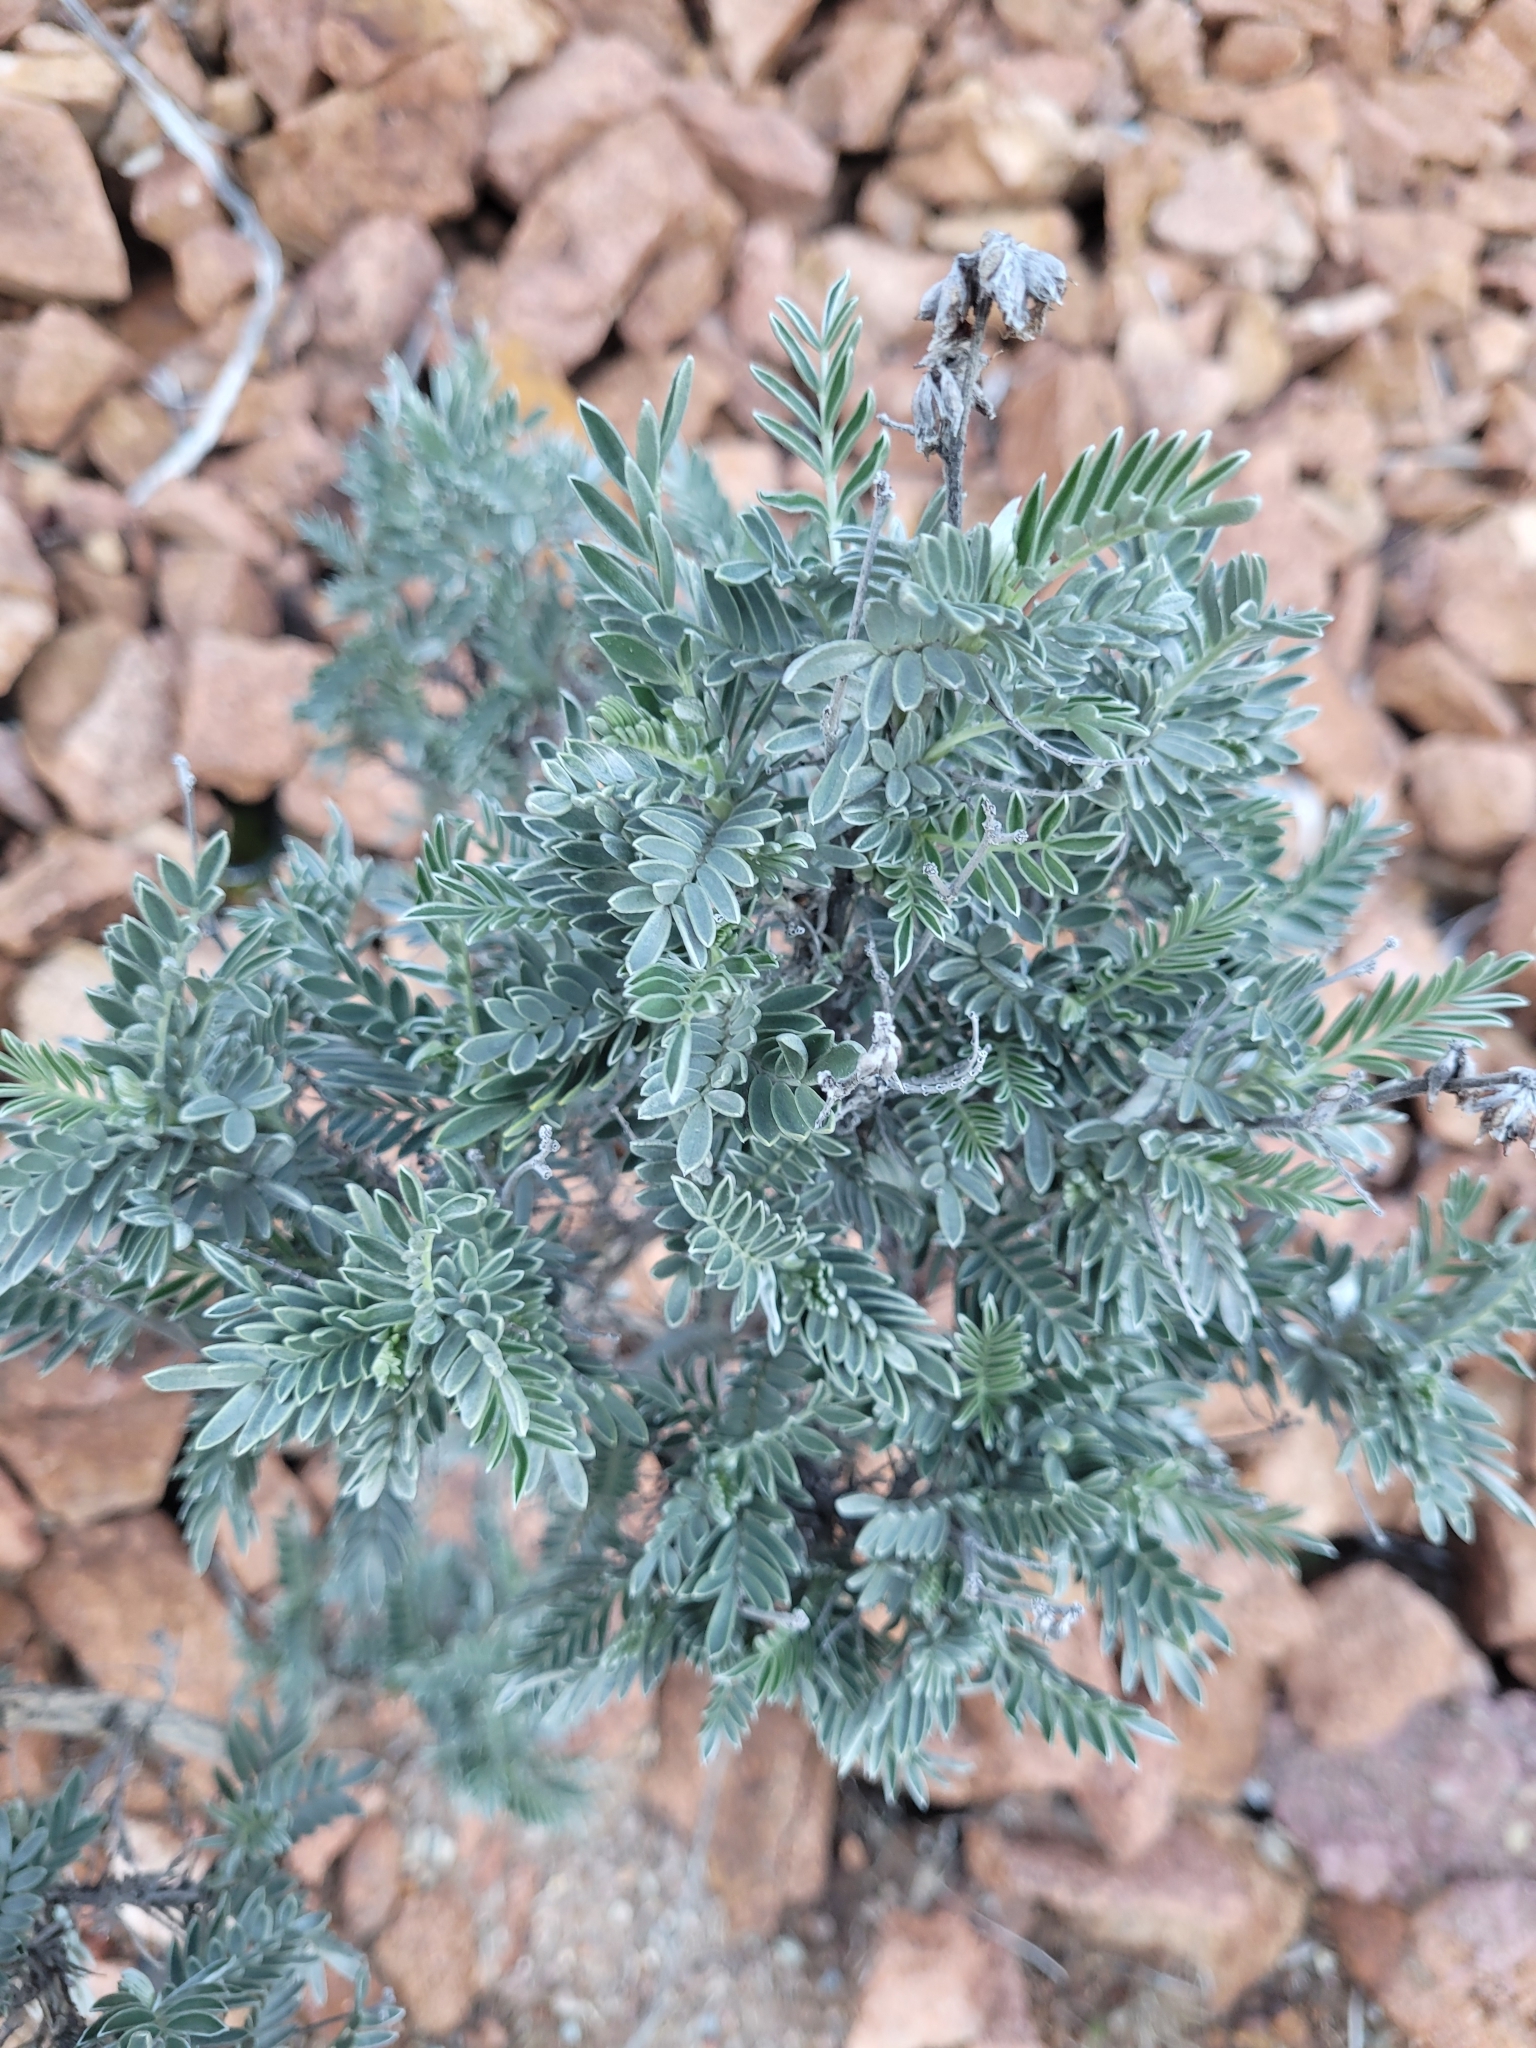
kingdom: Plantae
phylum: Tracheophyta
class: Magnoliopsida
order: Fabales
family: Fabaceae
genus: Anthyllis
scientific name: Anthyllis barba-jovis
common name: Jupiter's-beard
